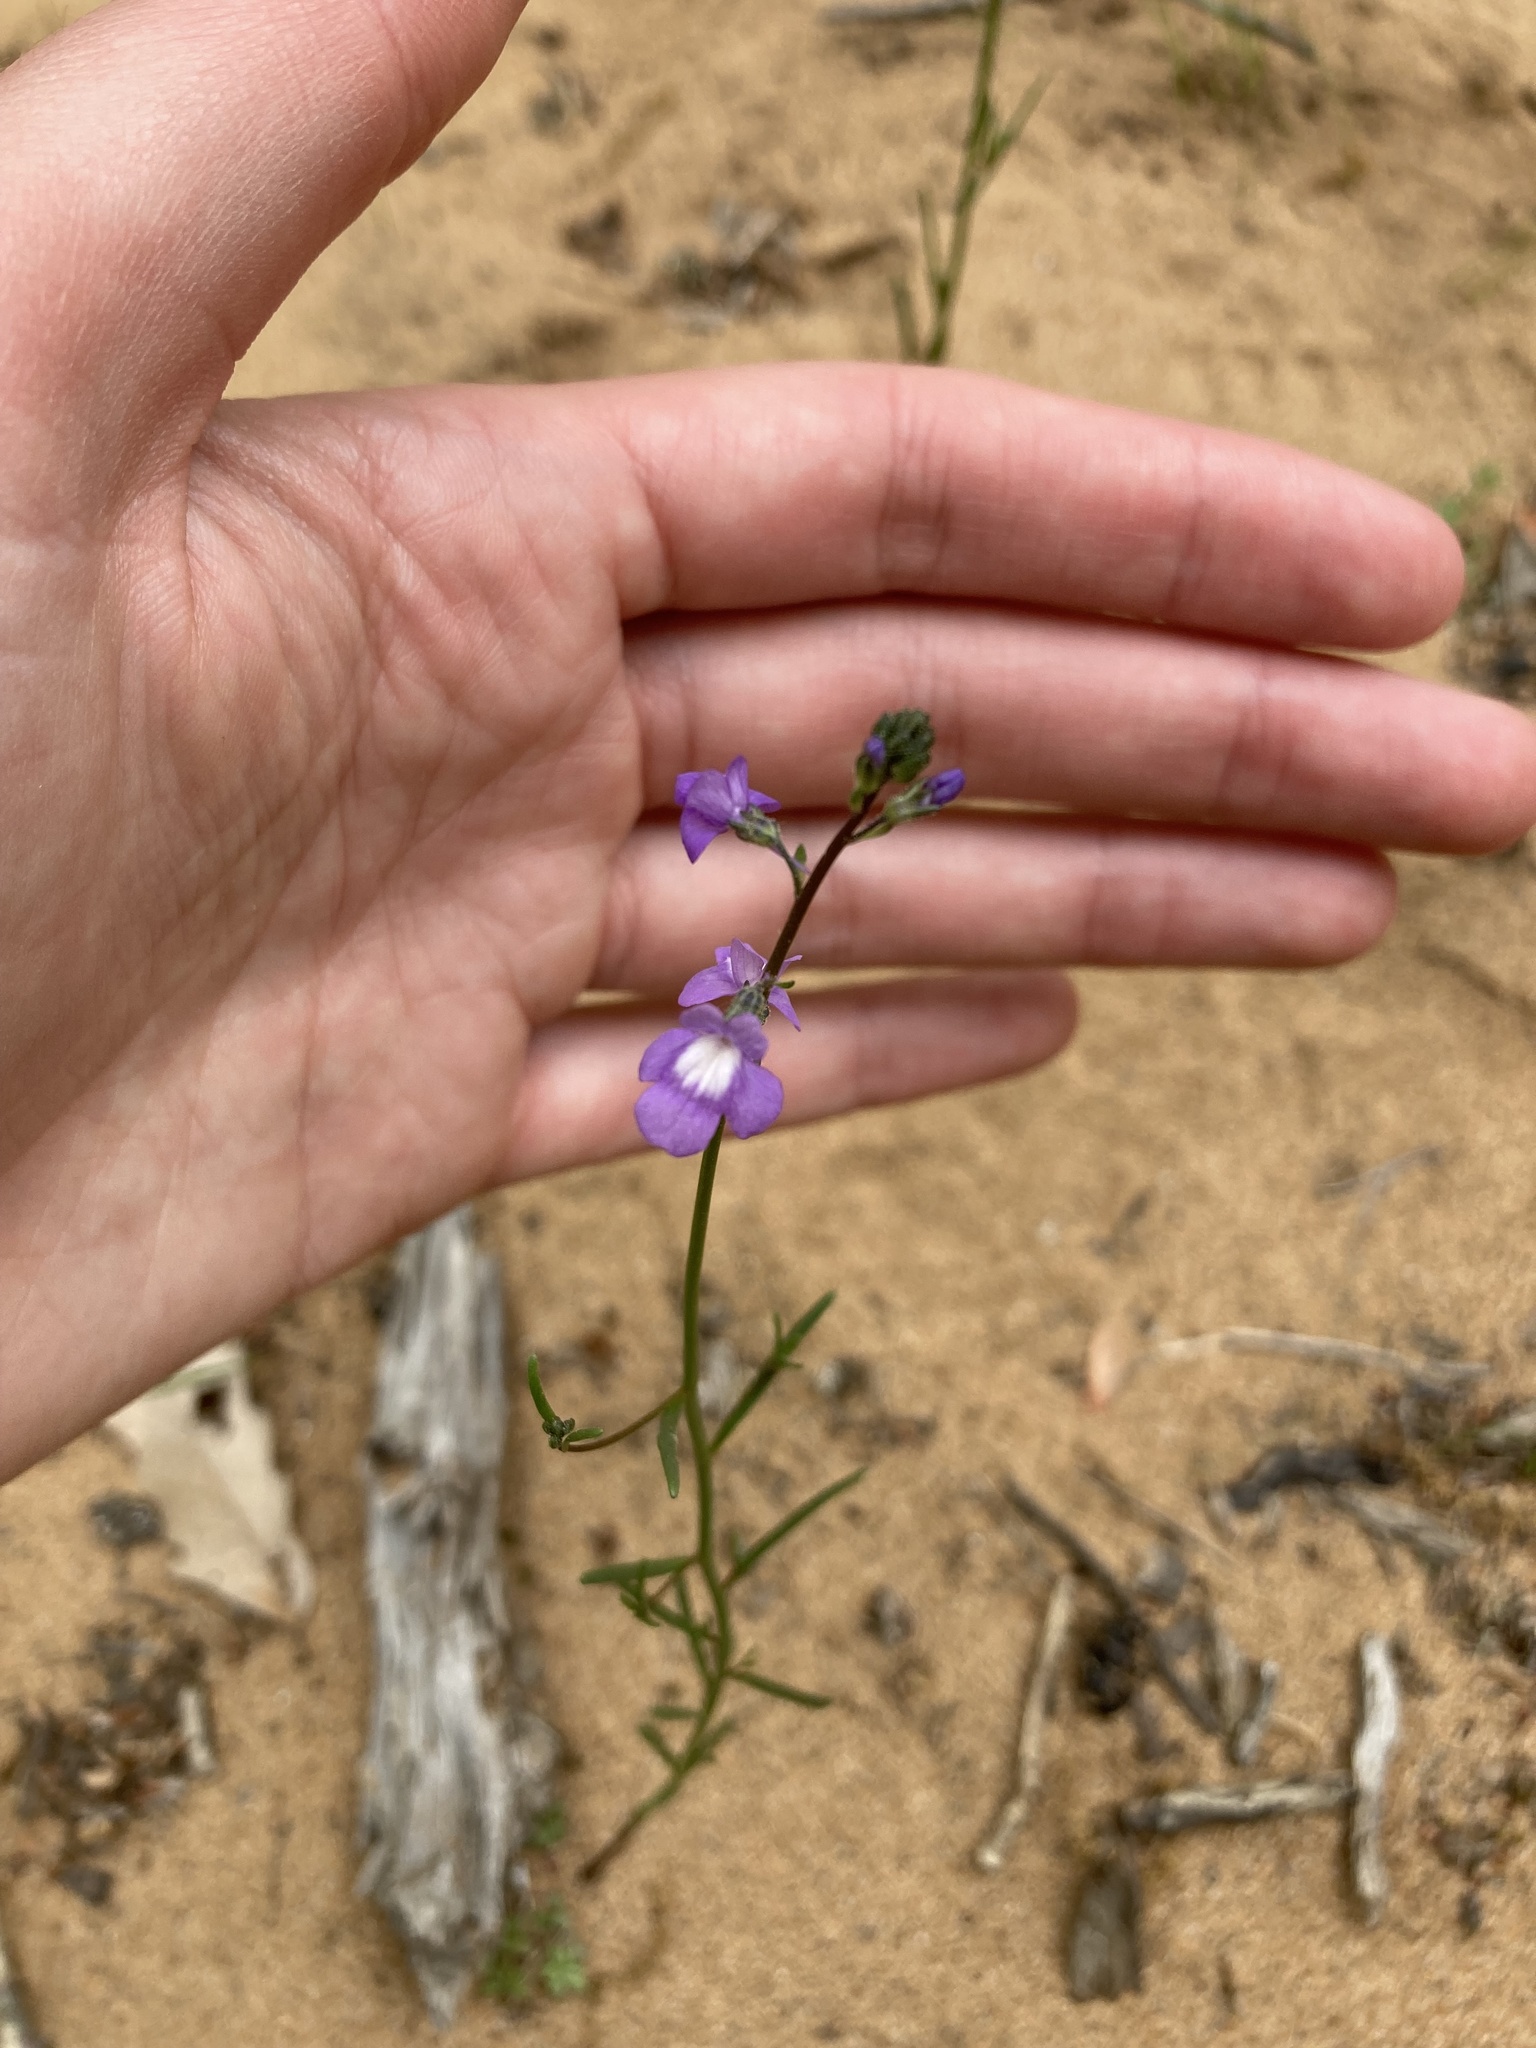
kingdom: Plantae
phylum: Tracheophyta
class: Magnoliopsida
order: Lamiales
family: Plantaginaceae
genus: Nuttallanthus
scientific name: Nuttallanthus canadensis
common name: Blue toadflax
